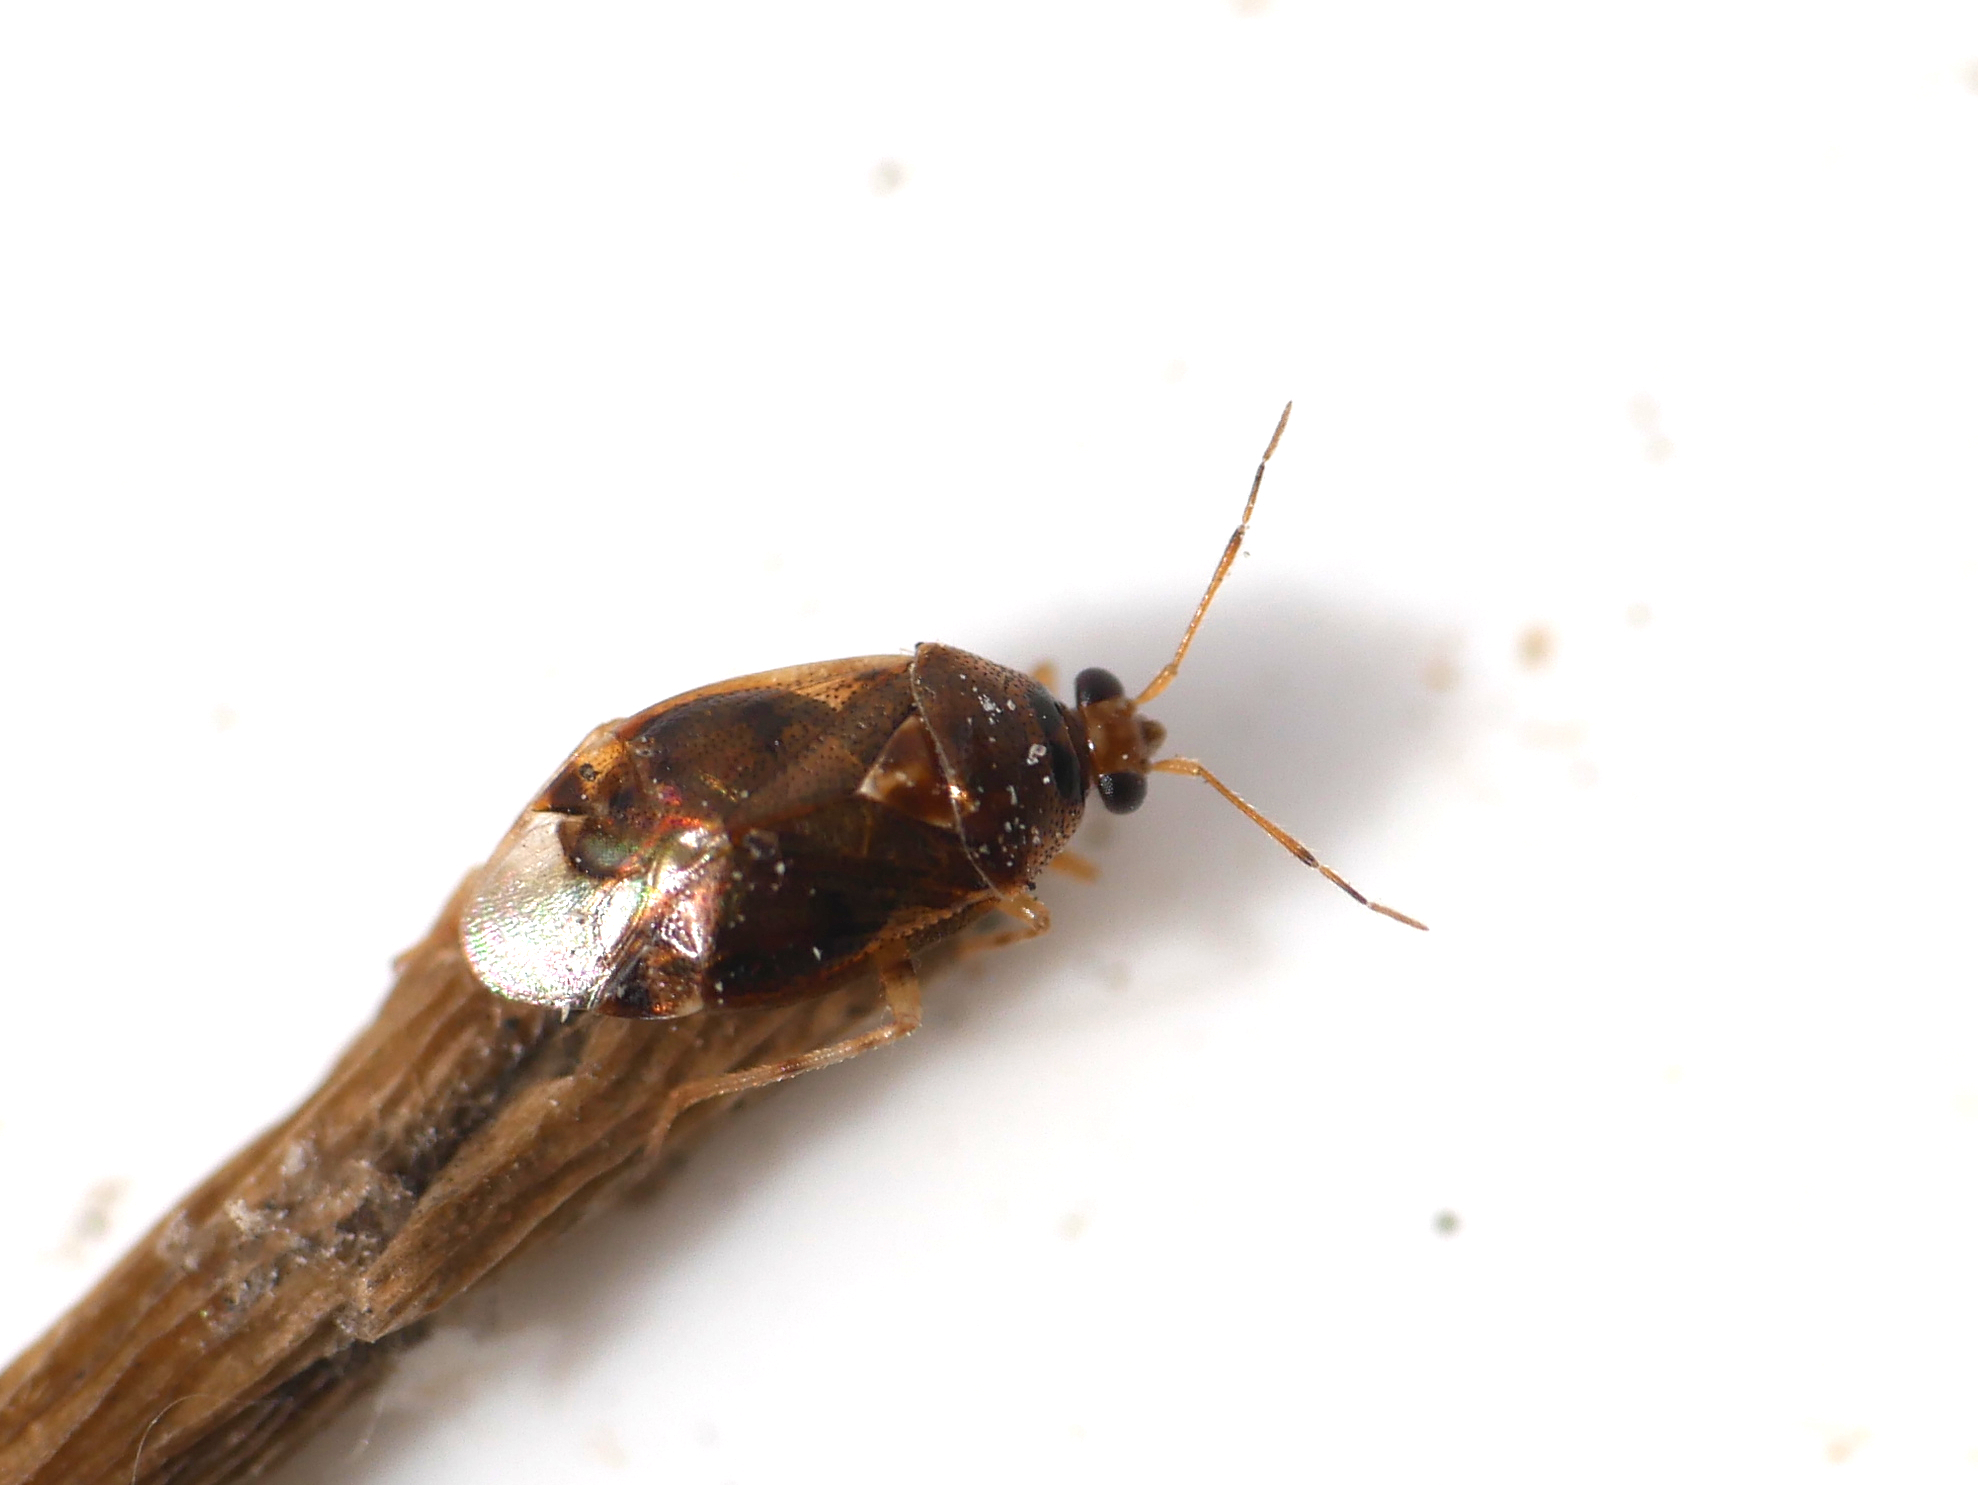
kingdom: Animalia
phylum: Arthropoda
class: Insecta
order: Hemiptera
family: Miridae
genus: Deraeocoris
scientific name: Deraeocoris lutescens
